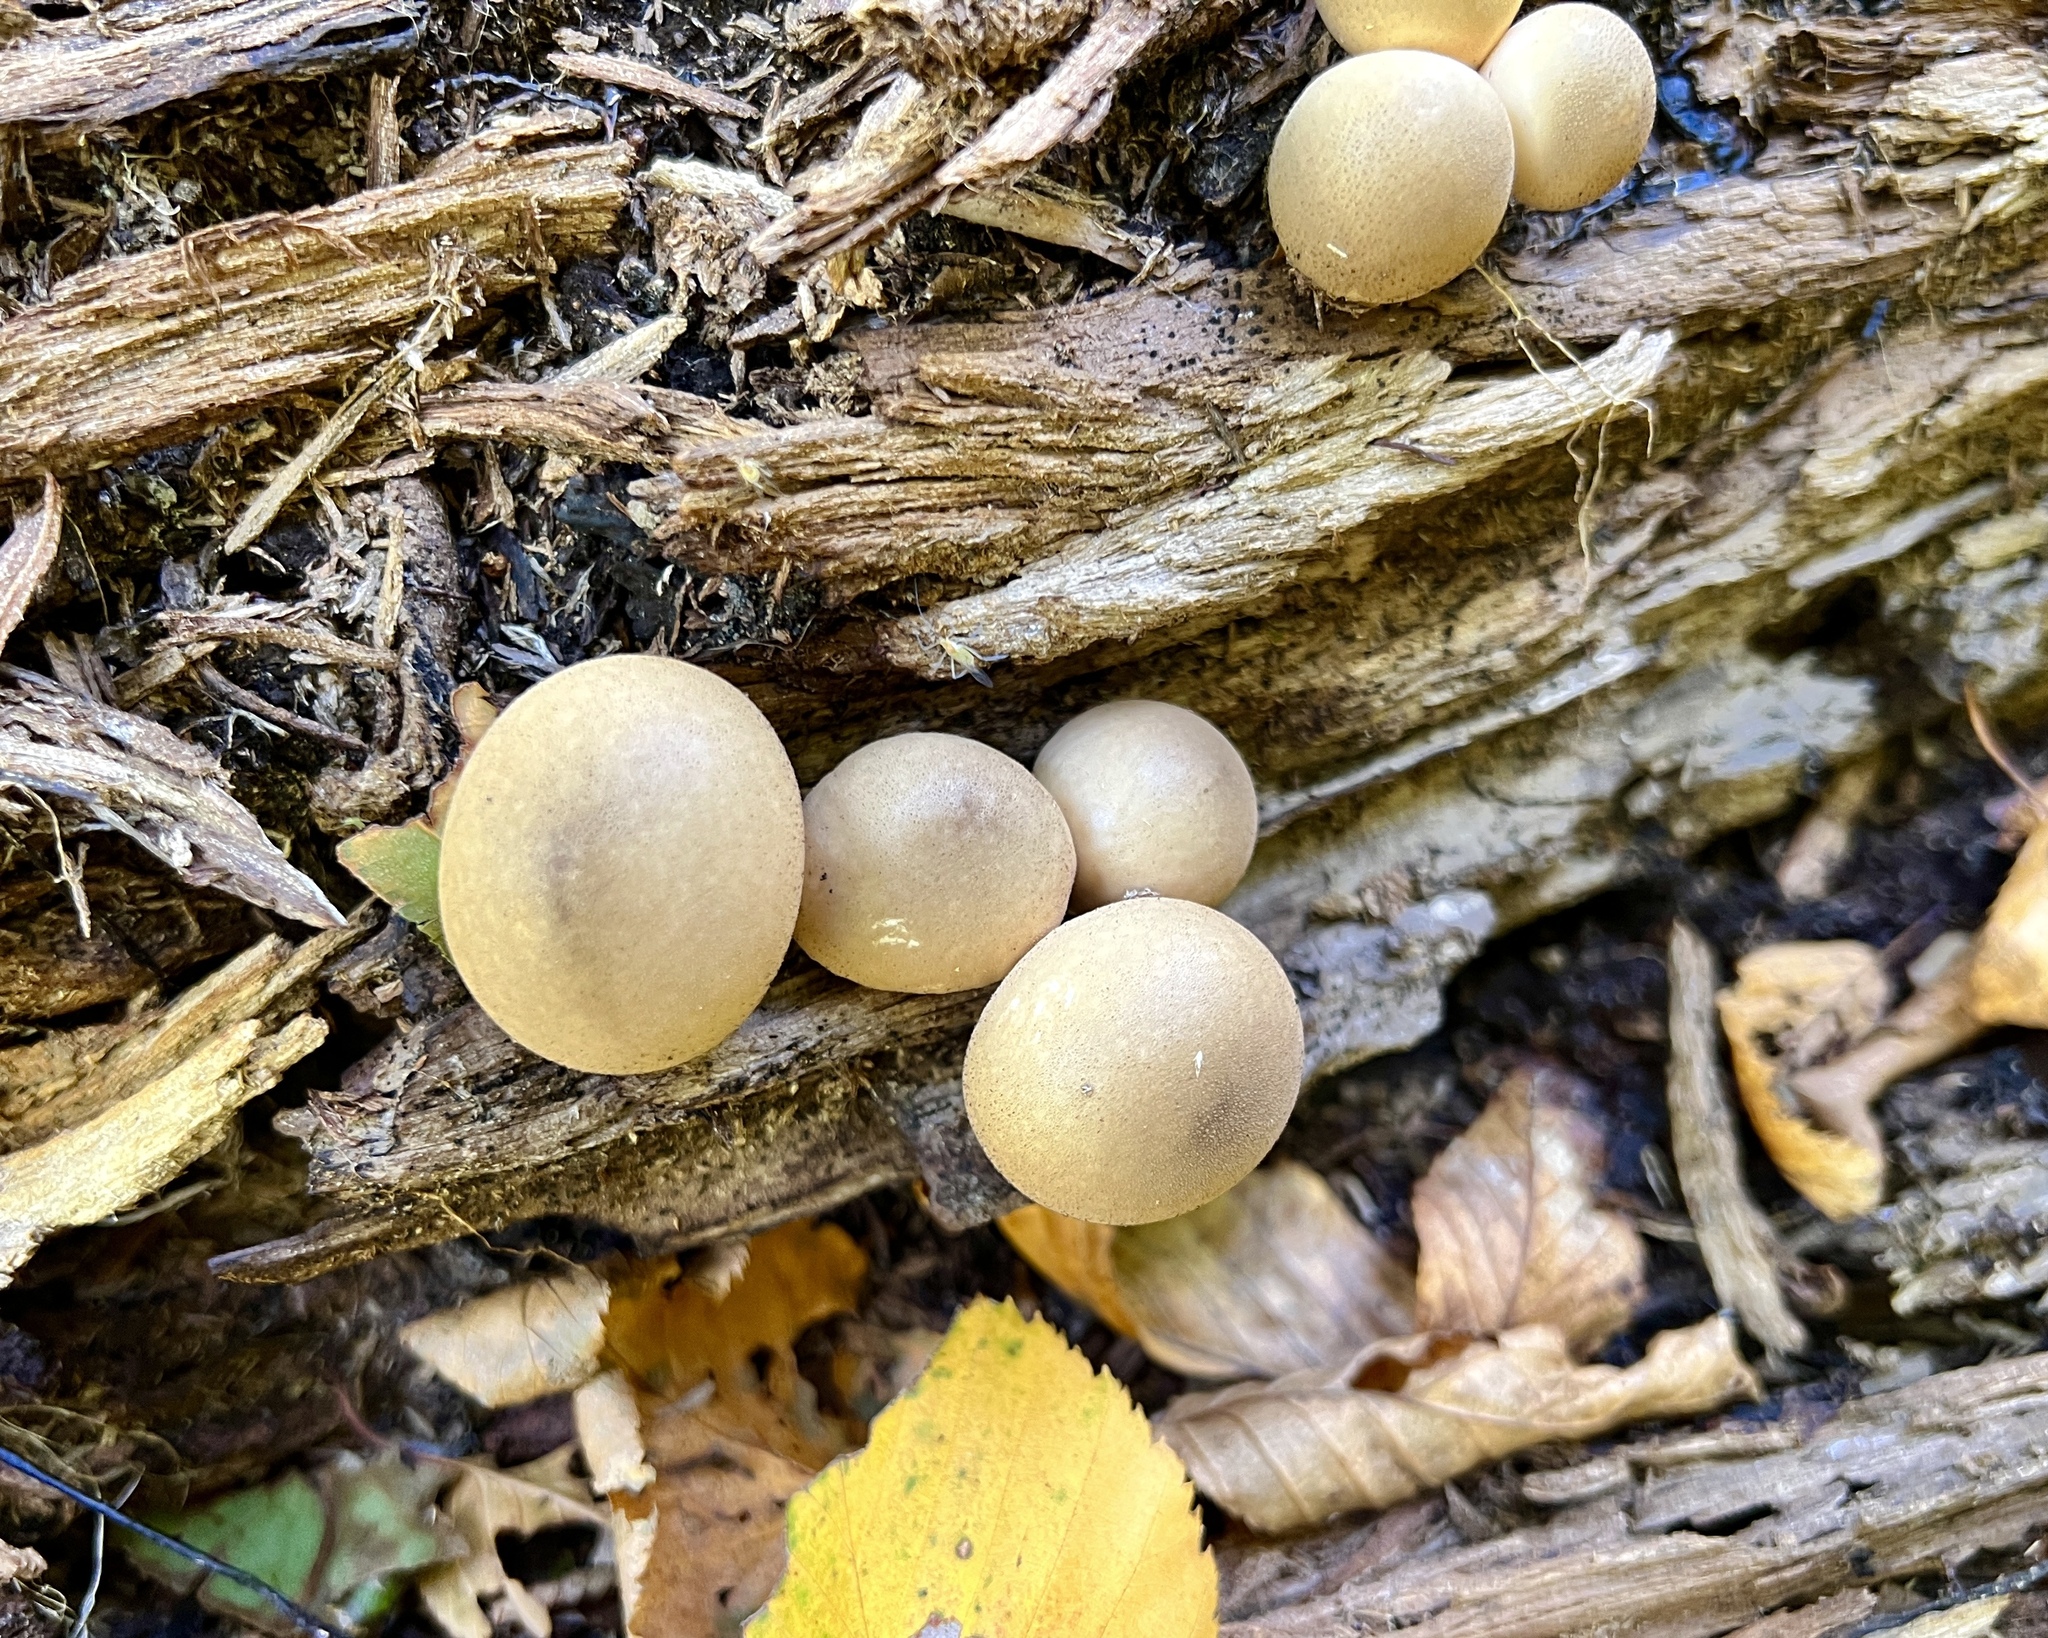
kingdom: Fungi
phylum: Basidiomycota
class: Agaricomycetes
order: Agaricales
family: Lycoperdaceae
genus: Apioperdon
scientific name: Apioperdon pyriforme
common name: Pear-shaped puffball
